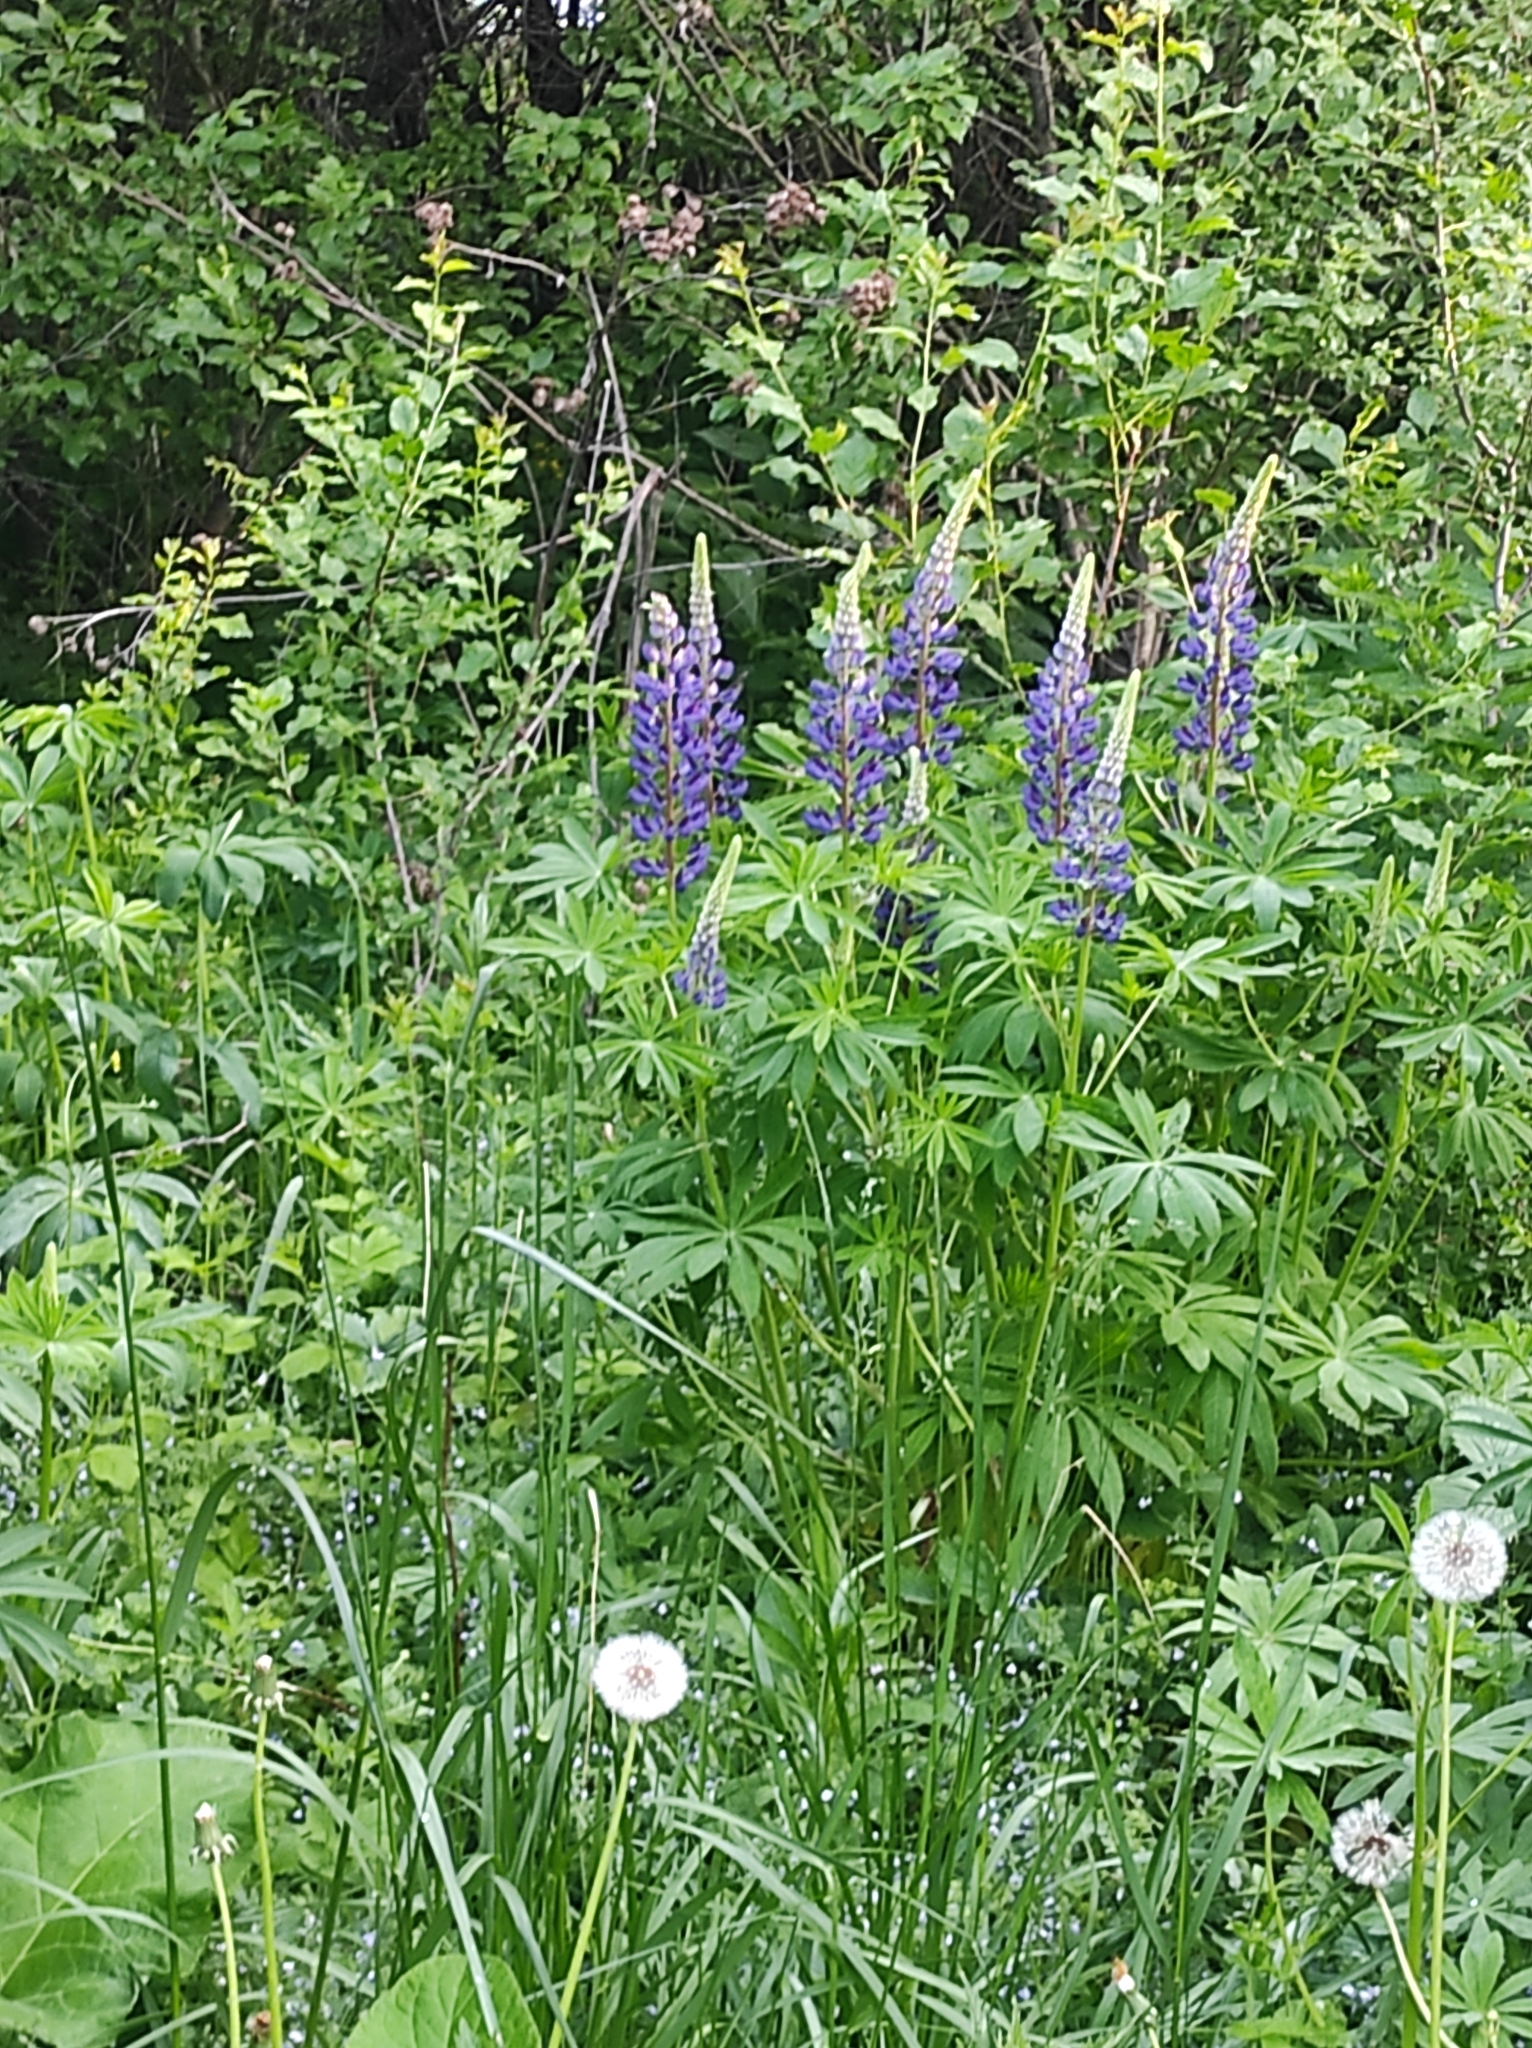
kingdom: Plantae
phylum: Tracheophyta
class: Magnoliopsida
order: Fabales
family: Fabaceae
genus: Lupinus
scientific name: Lupinus polyphyllus
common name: Garden lupin
